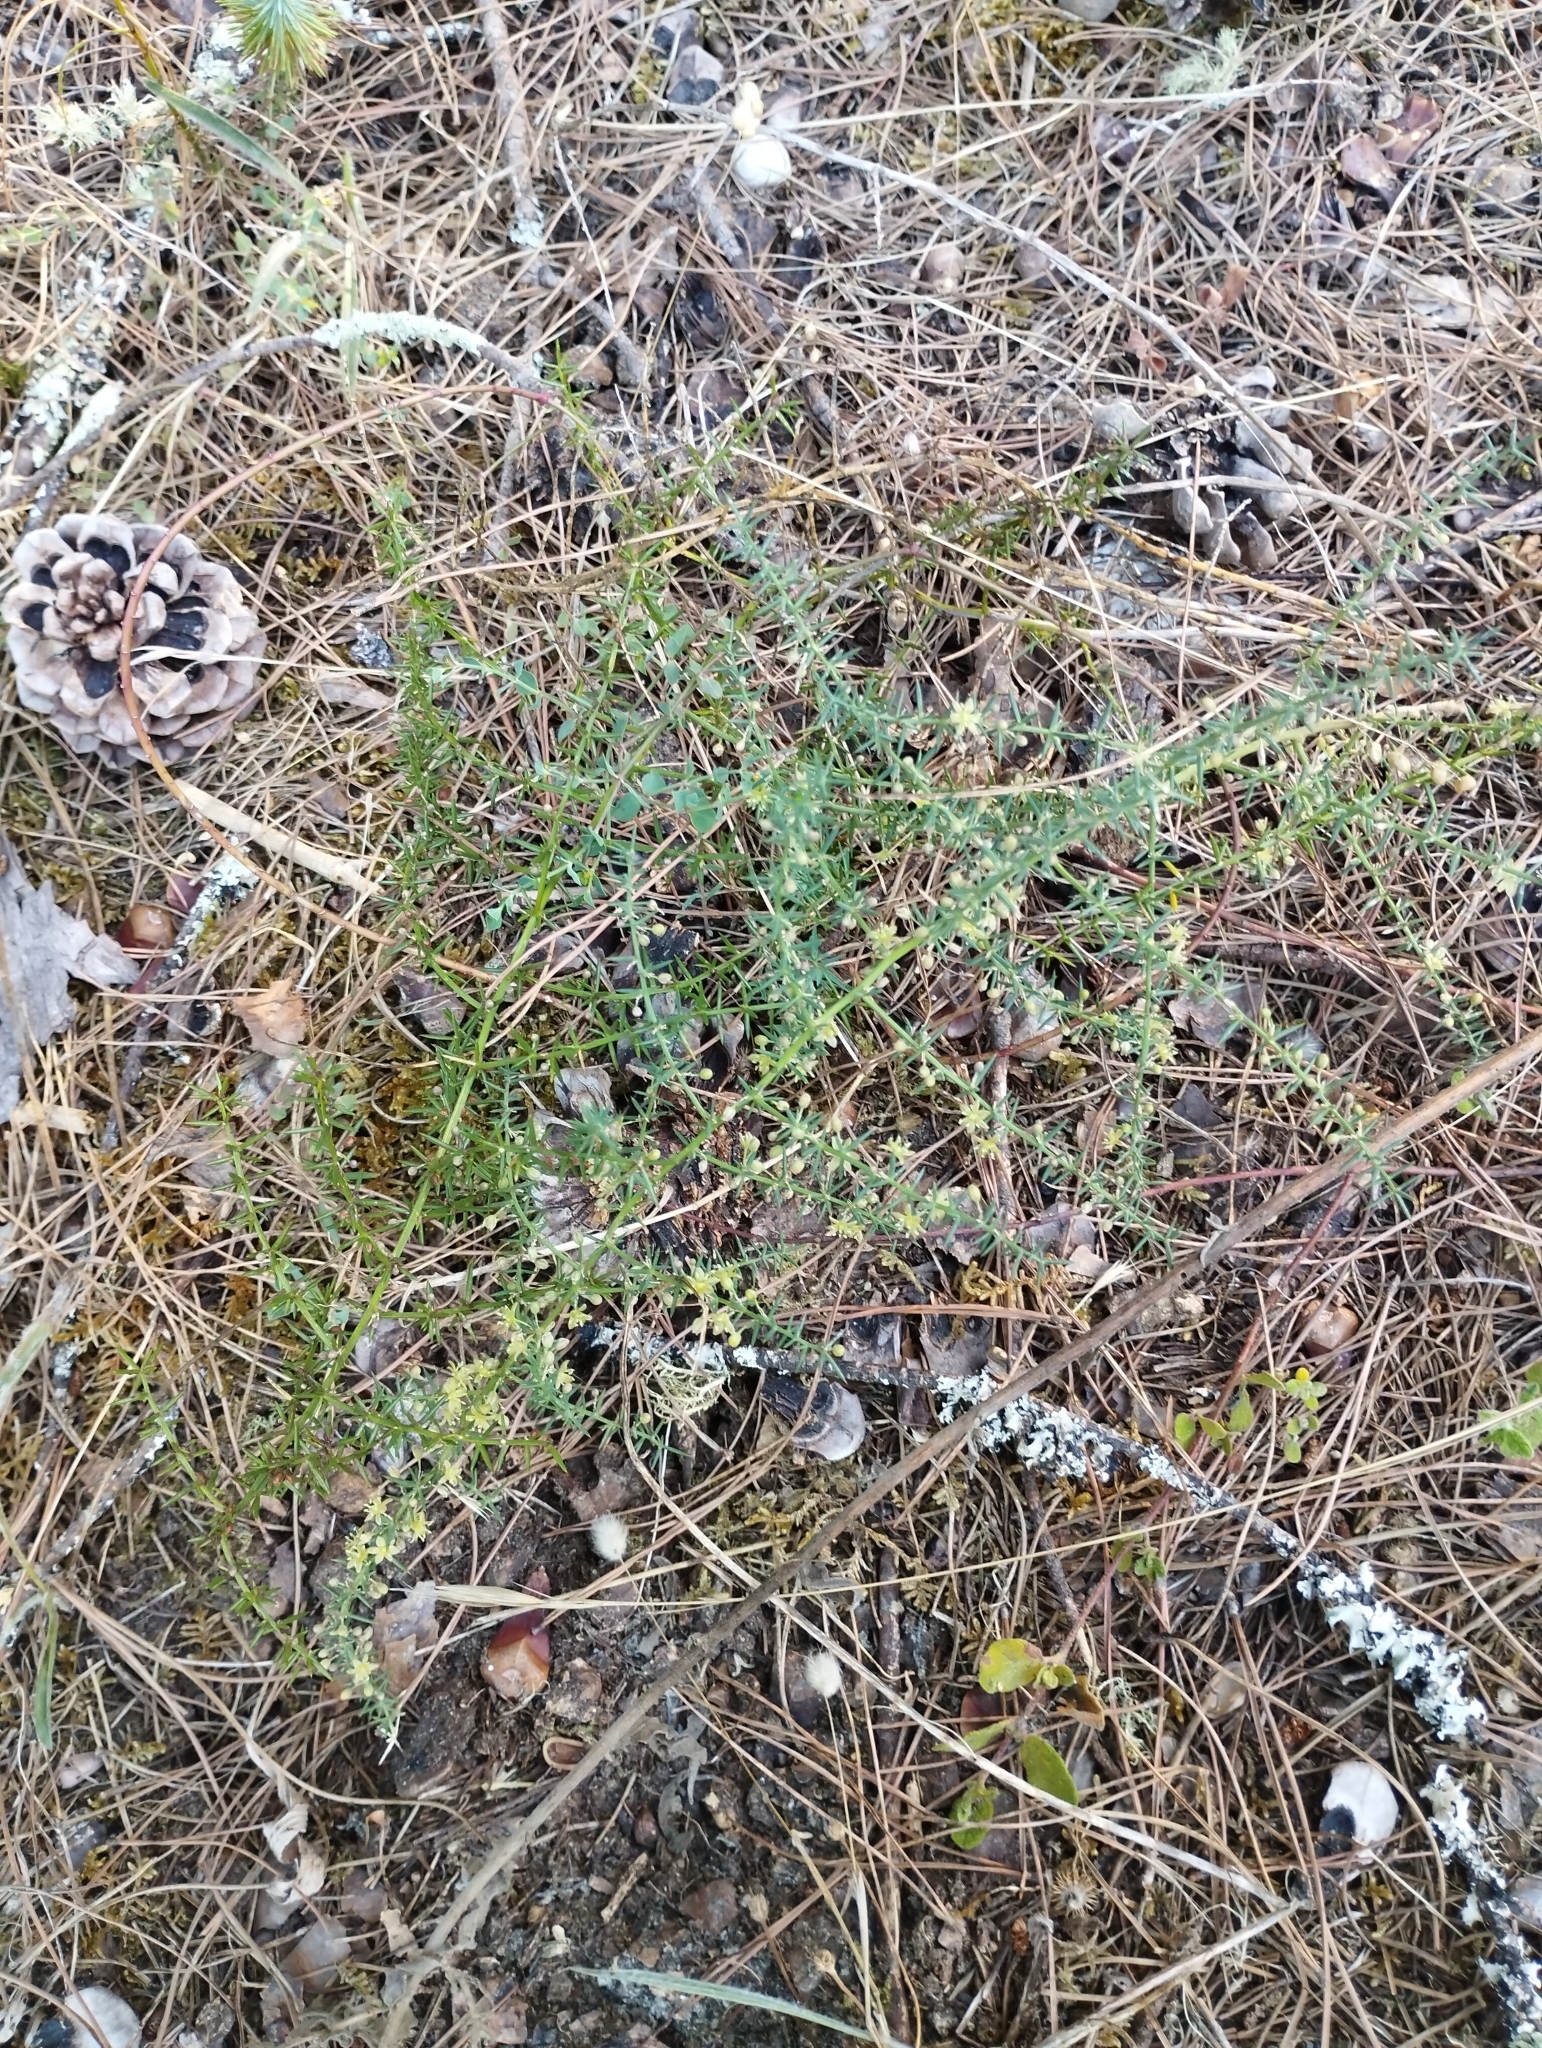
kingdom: Plantae
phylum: Tracheophyta
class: Liliopsida
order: Asparagales
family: Asparagaceae
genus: Asparagus
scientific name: Asparagus aphyllus
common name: Mediterranean asparagus
